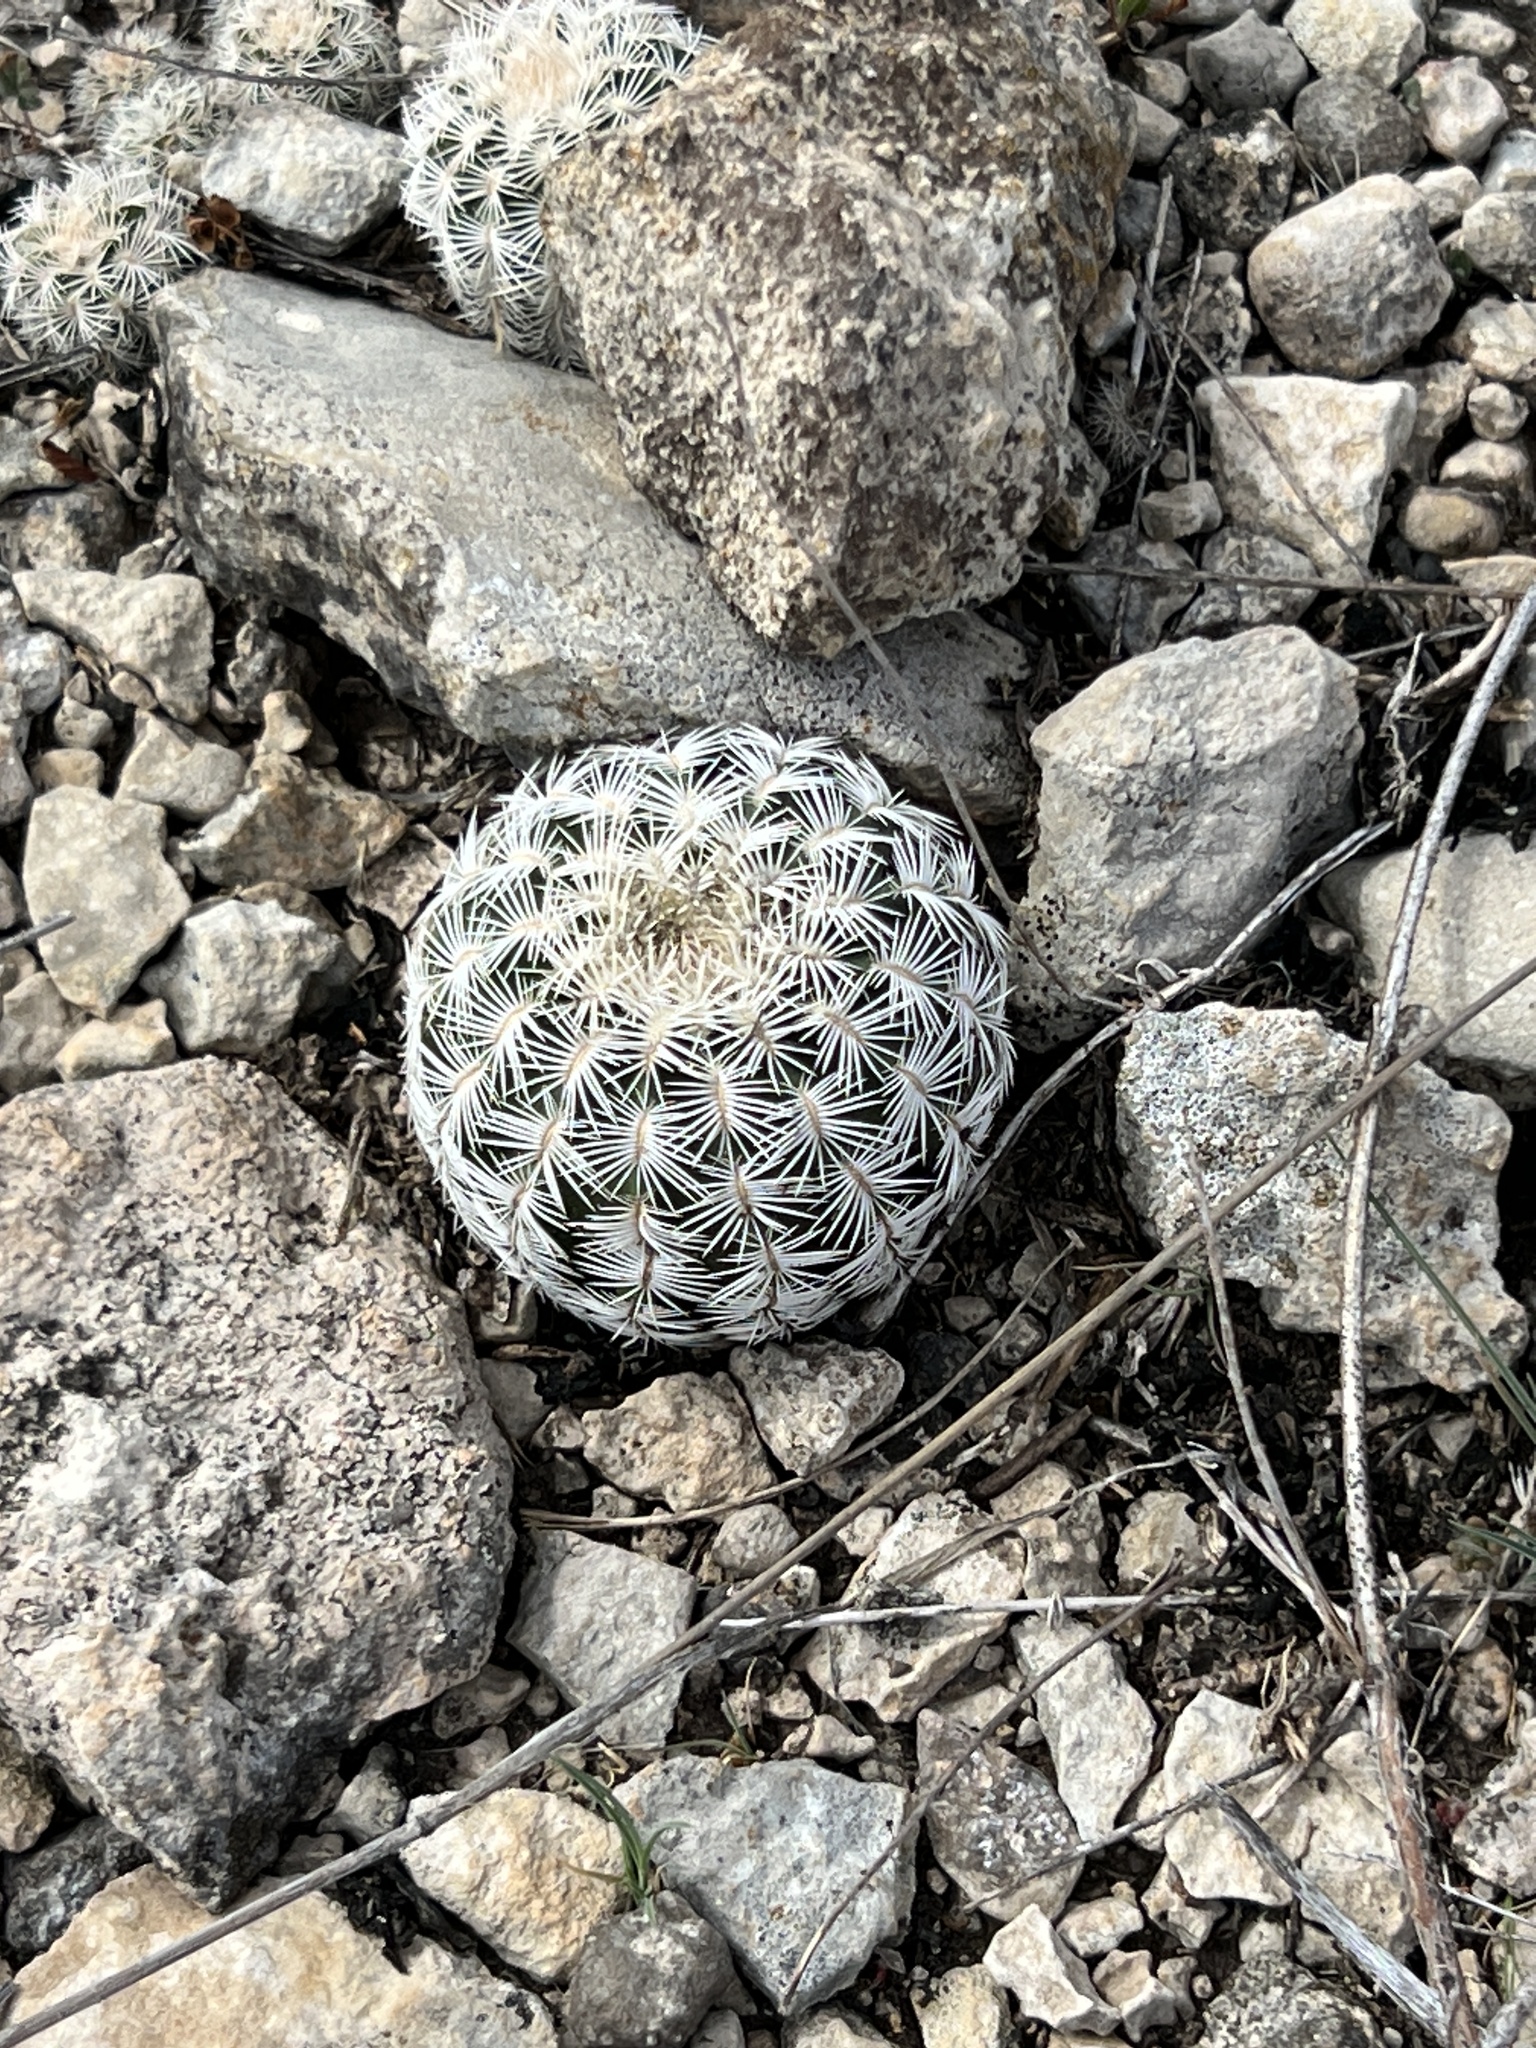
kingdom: Plantae
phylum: Tracheophyta
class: Magnoliopsida
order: Caryophyllales
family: Cactaceae
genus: Echinocereus
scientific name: Echinocereus reichenbachii
